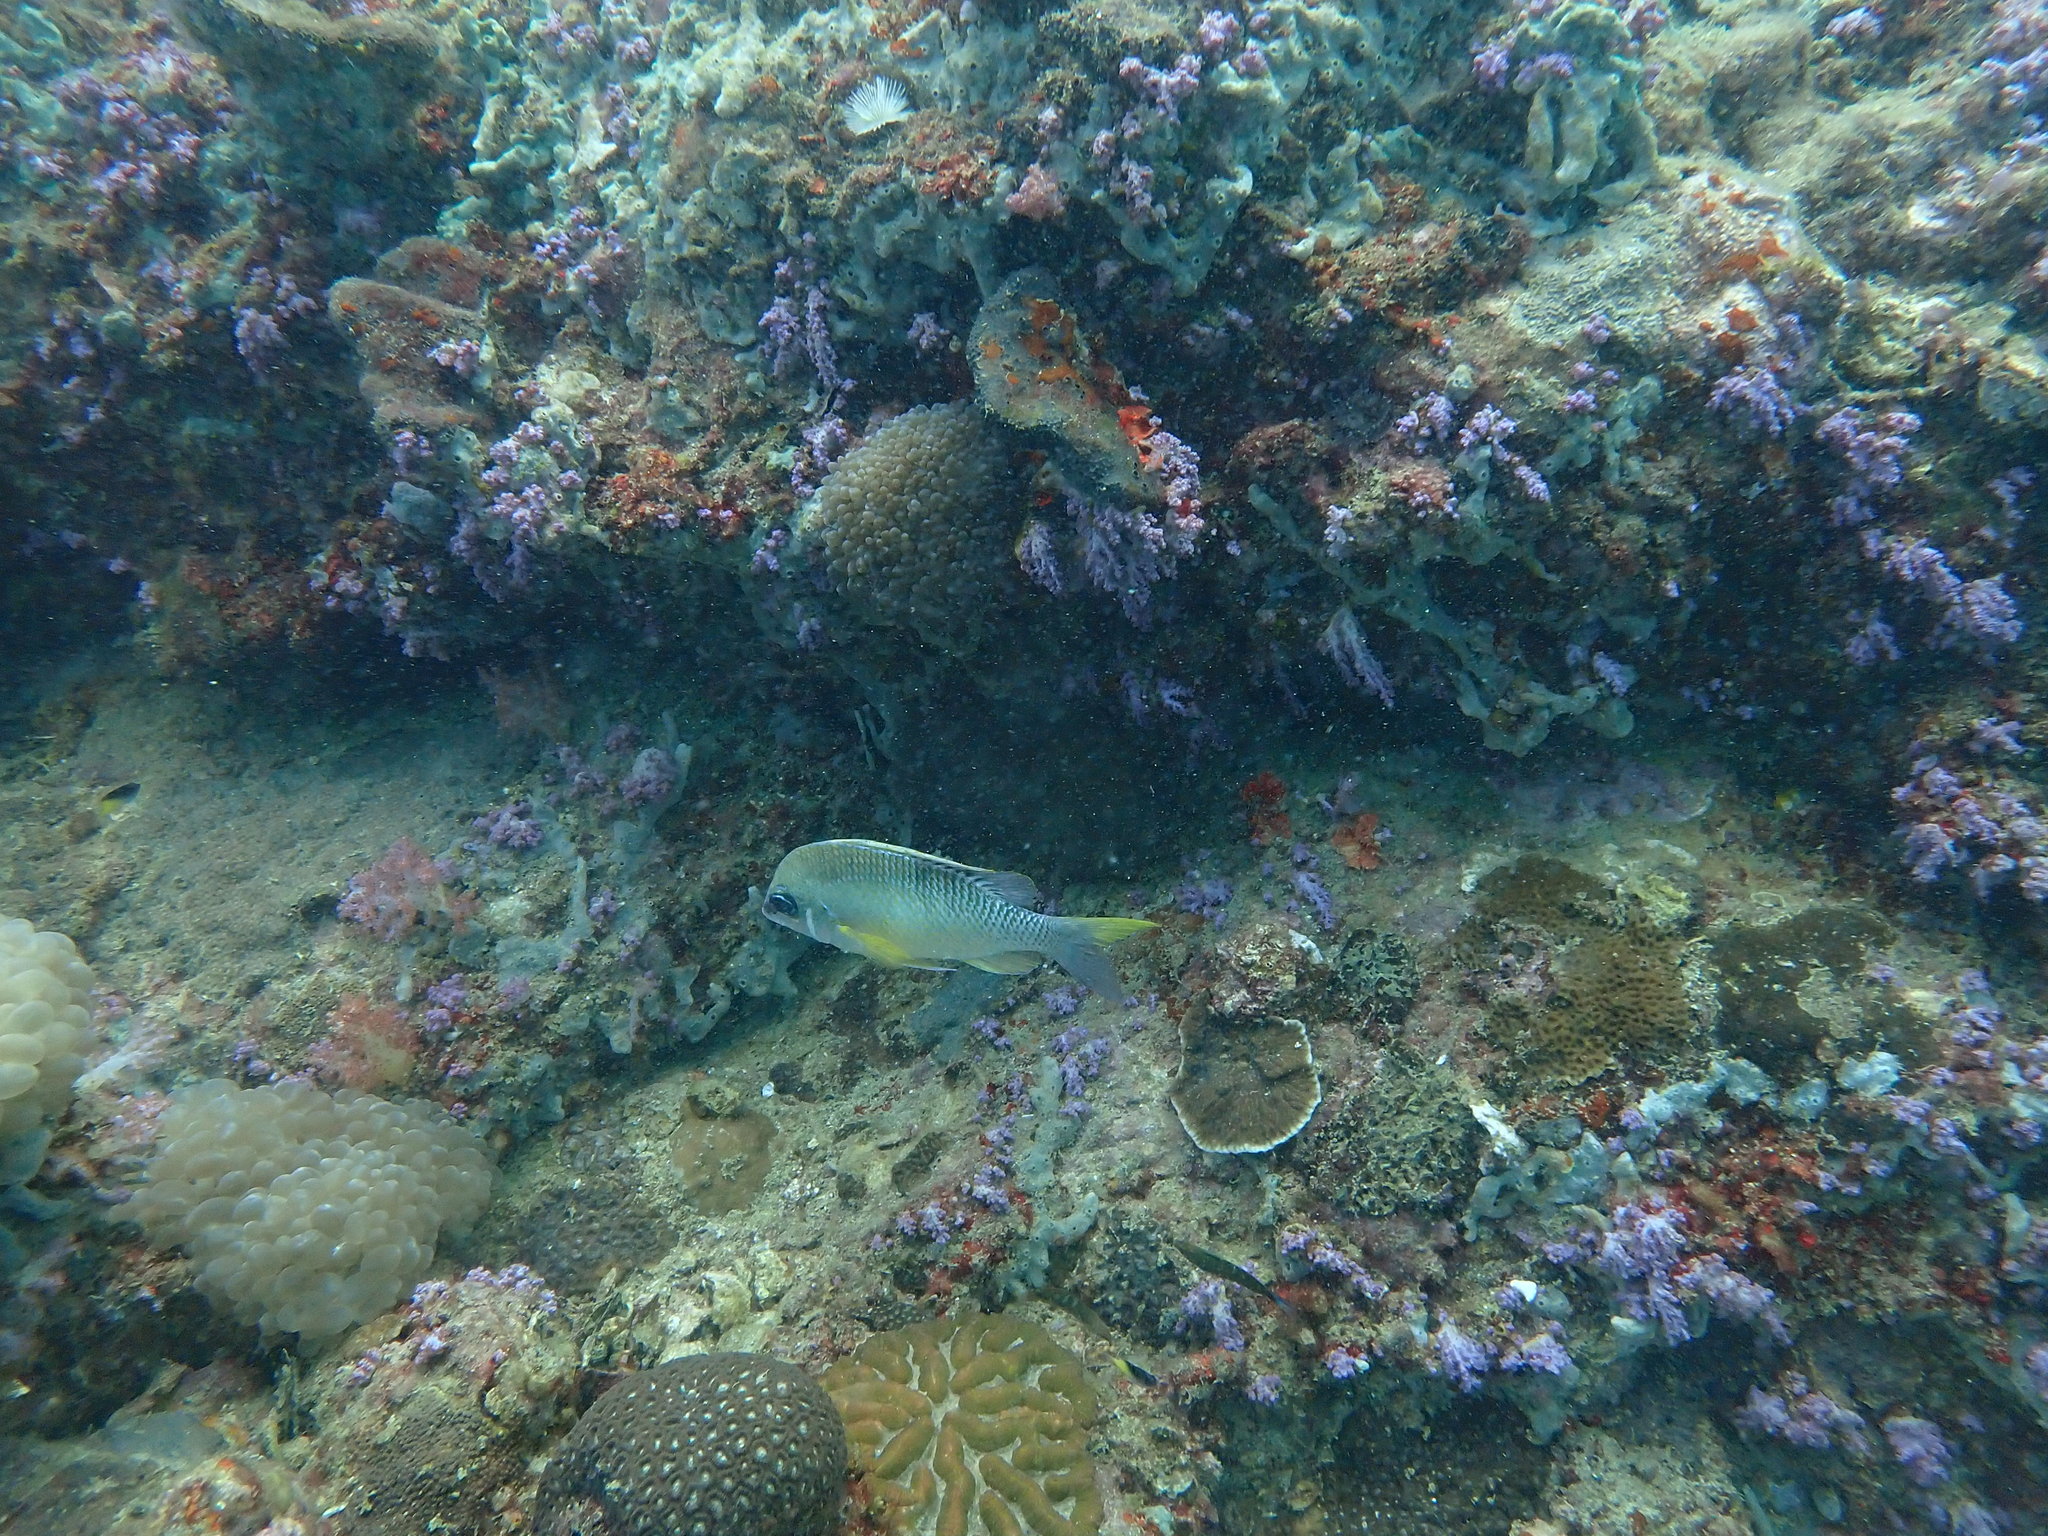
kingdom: Animalia
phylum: Chordata
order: Perciformes
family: Nemipteridae
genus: Scolopsis
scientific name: Scolopsis margaritifera
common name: Pearly monocle bream
